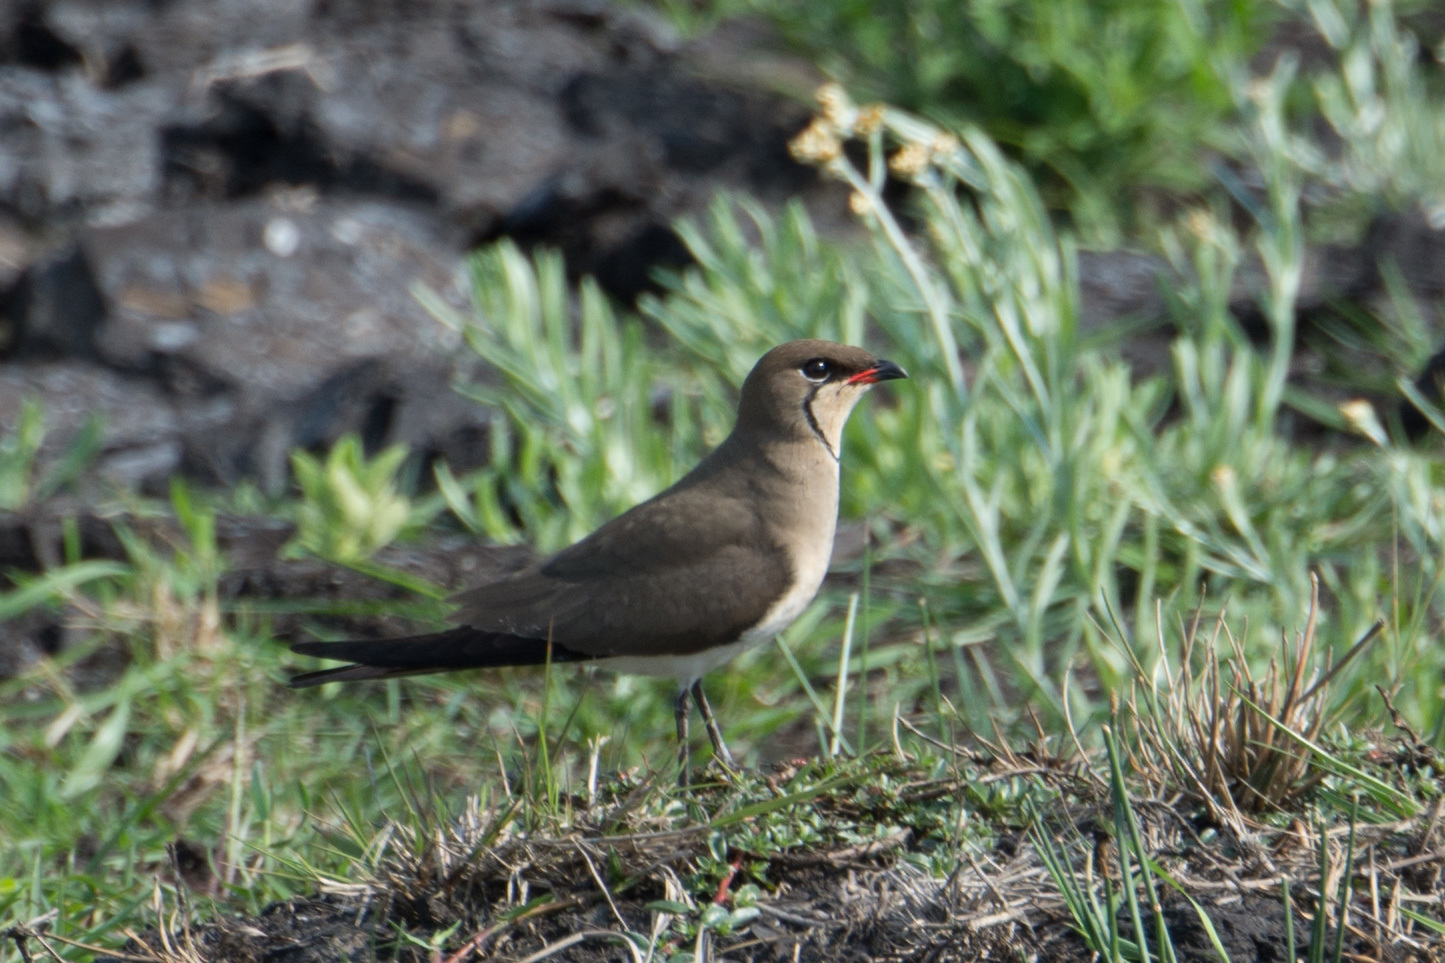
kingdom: Animalia
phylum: Chordata
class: Aves
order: Charadriiformes
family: Glareolidae
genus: Glareola
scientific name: Glareola pratincola
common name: Collared pratincole
